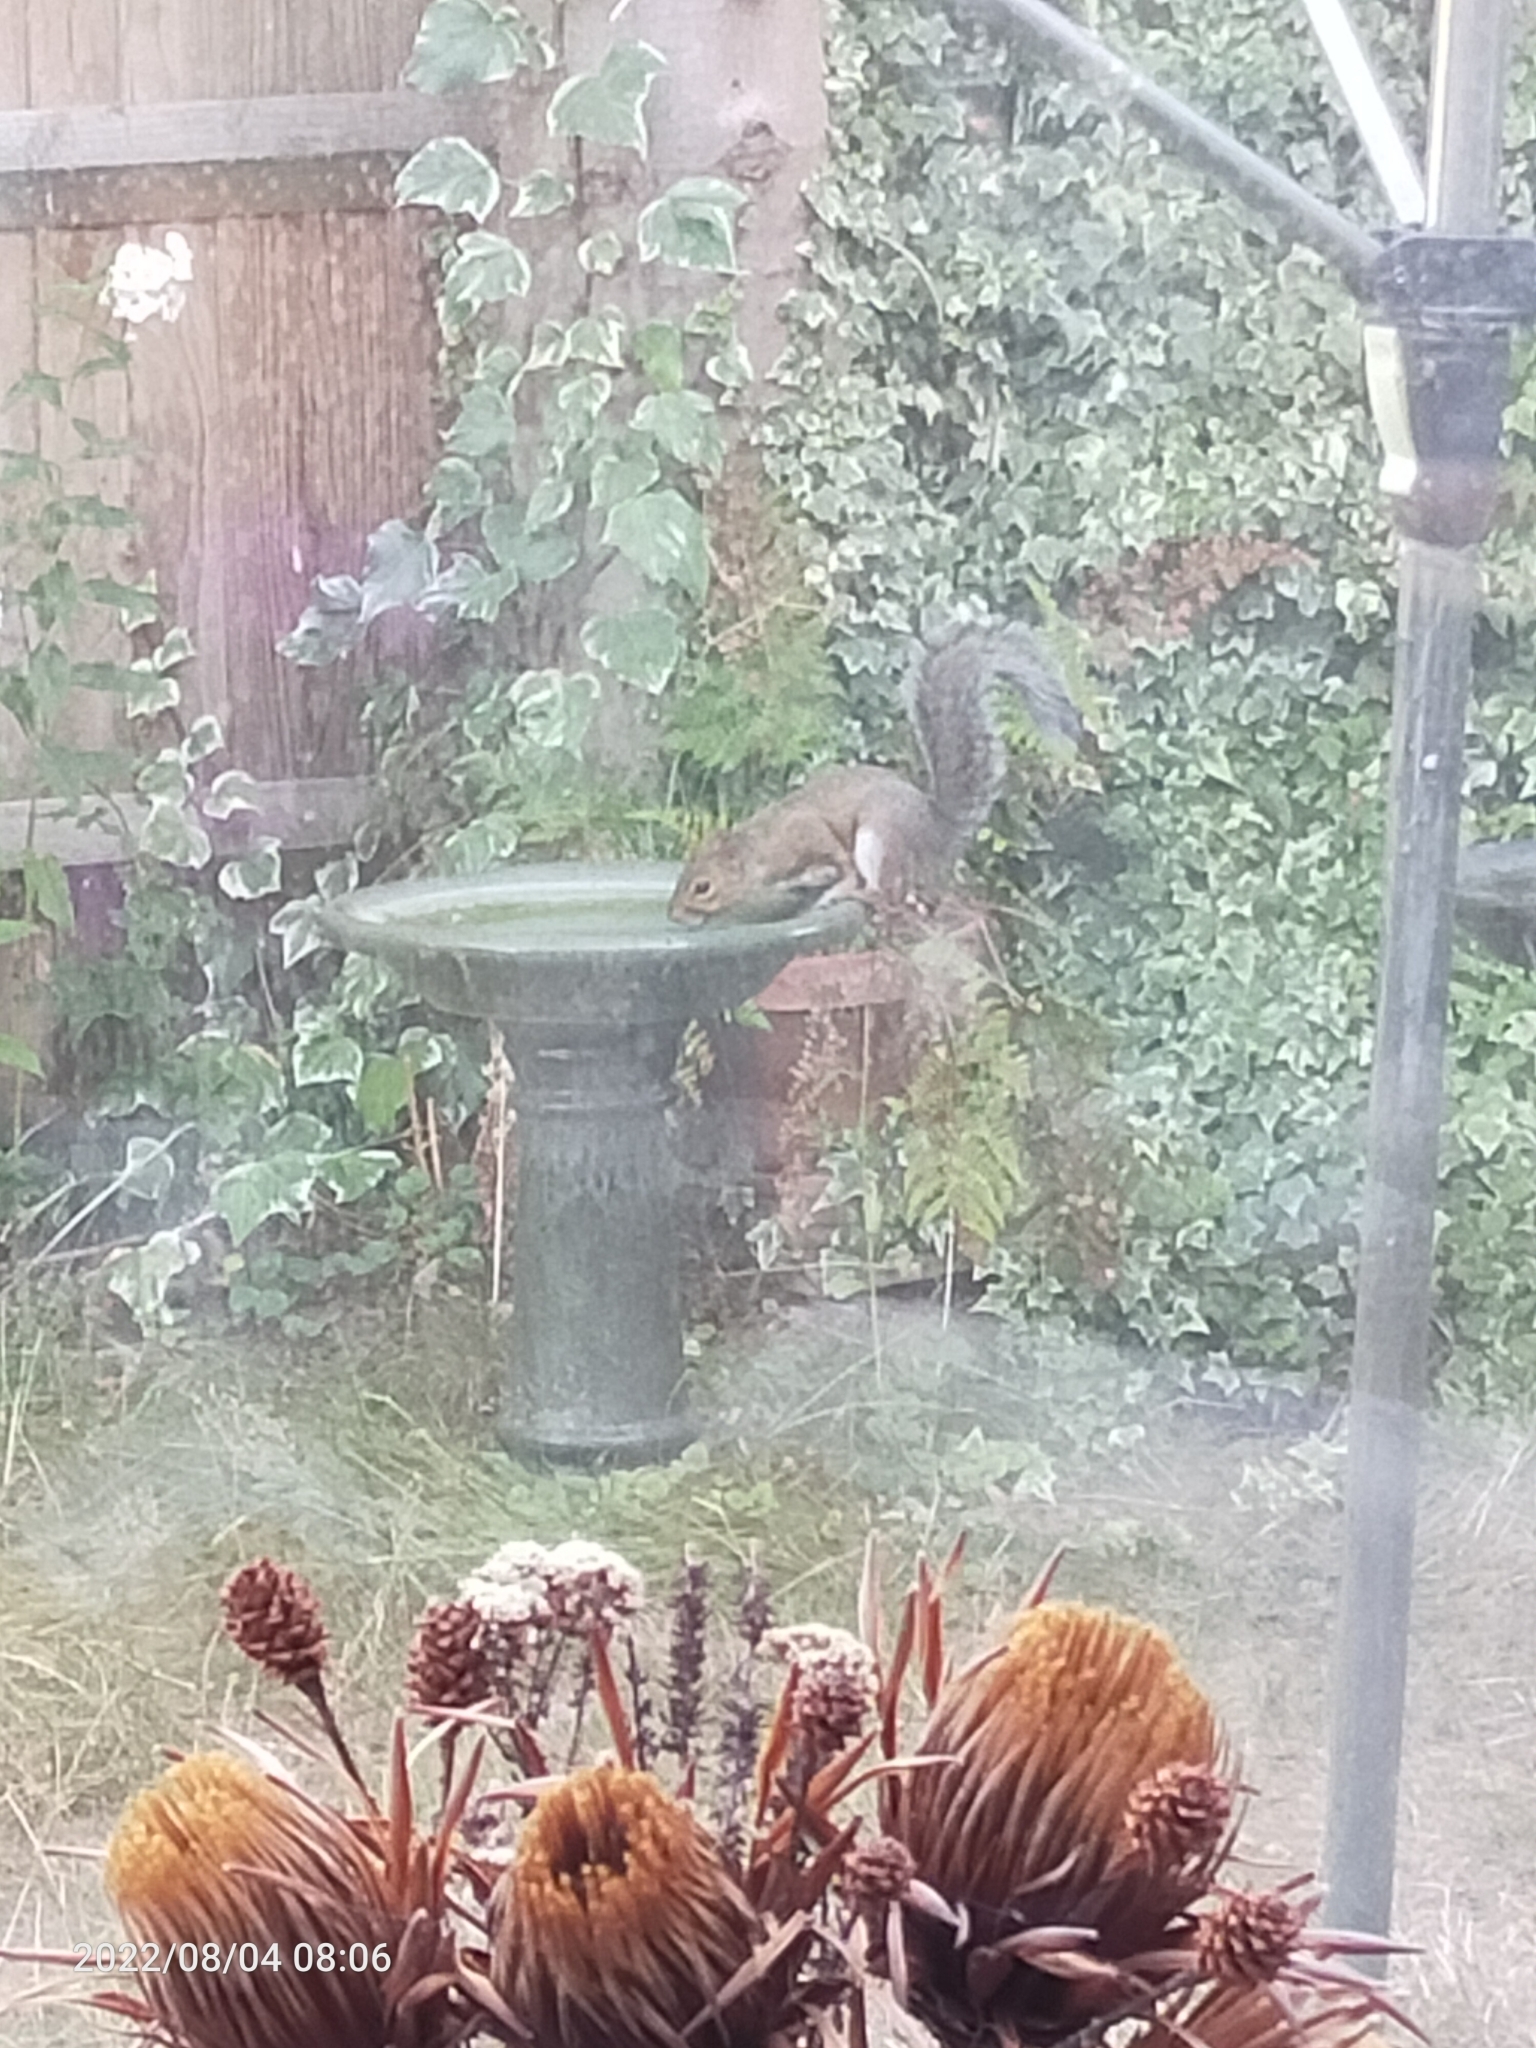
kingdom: Animalia
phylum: Chordata
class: Mammalia
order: Rodentia
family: Sciuridae
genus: Sciurus
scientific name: Sciurus carolinensis
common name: Eastern gray squirrel
